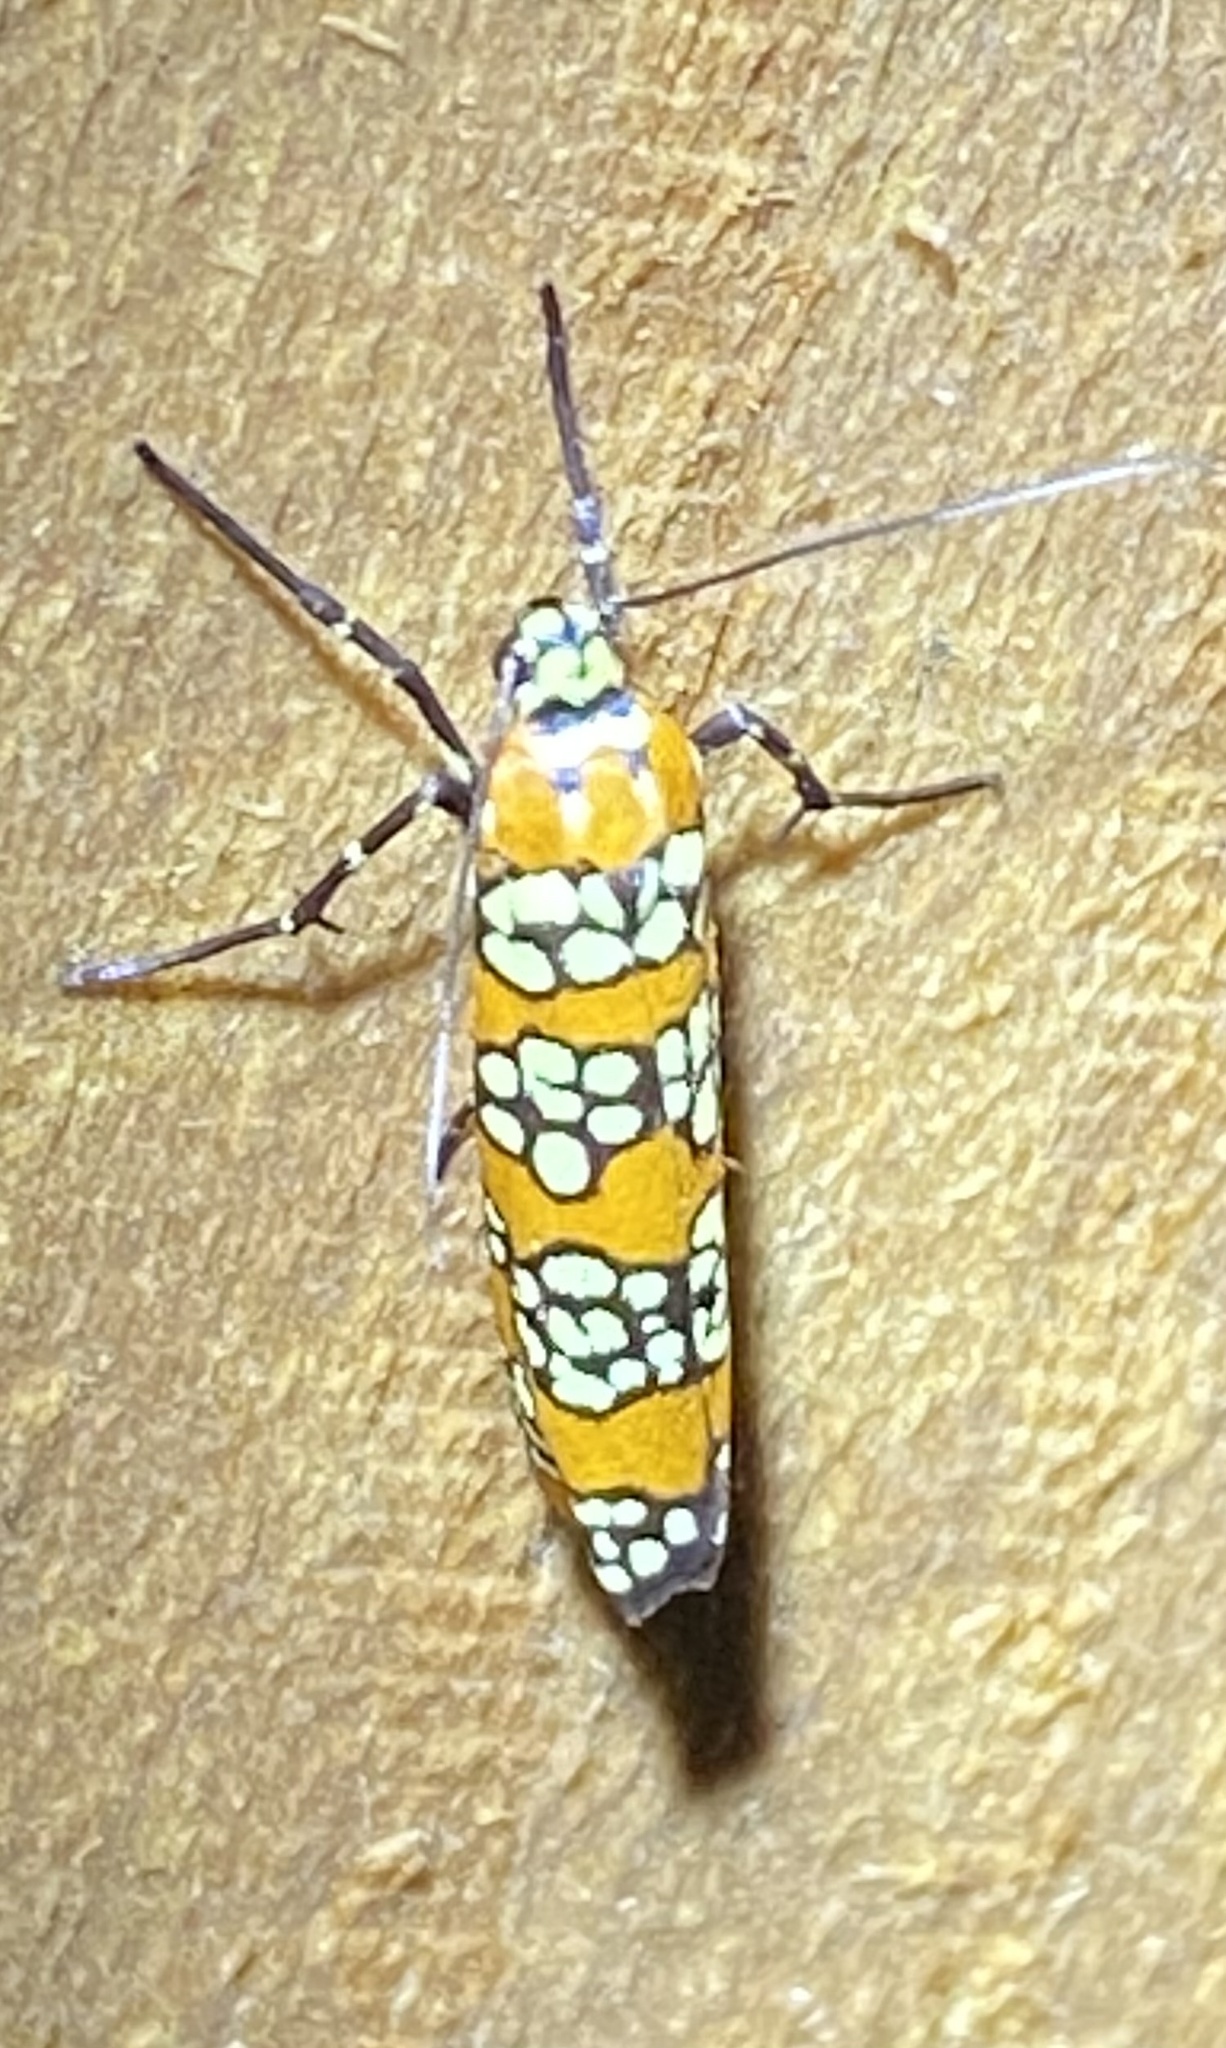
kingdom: Animalia
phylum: Arthropoda
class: Insecta
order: Lepidoptera
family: Attevidae
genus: Atteva
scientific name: Atteva punctella
